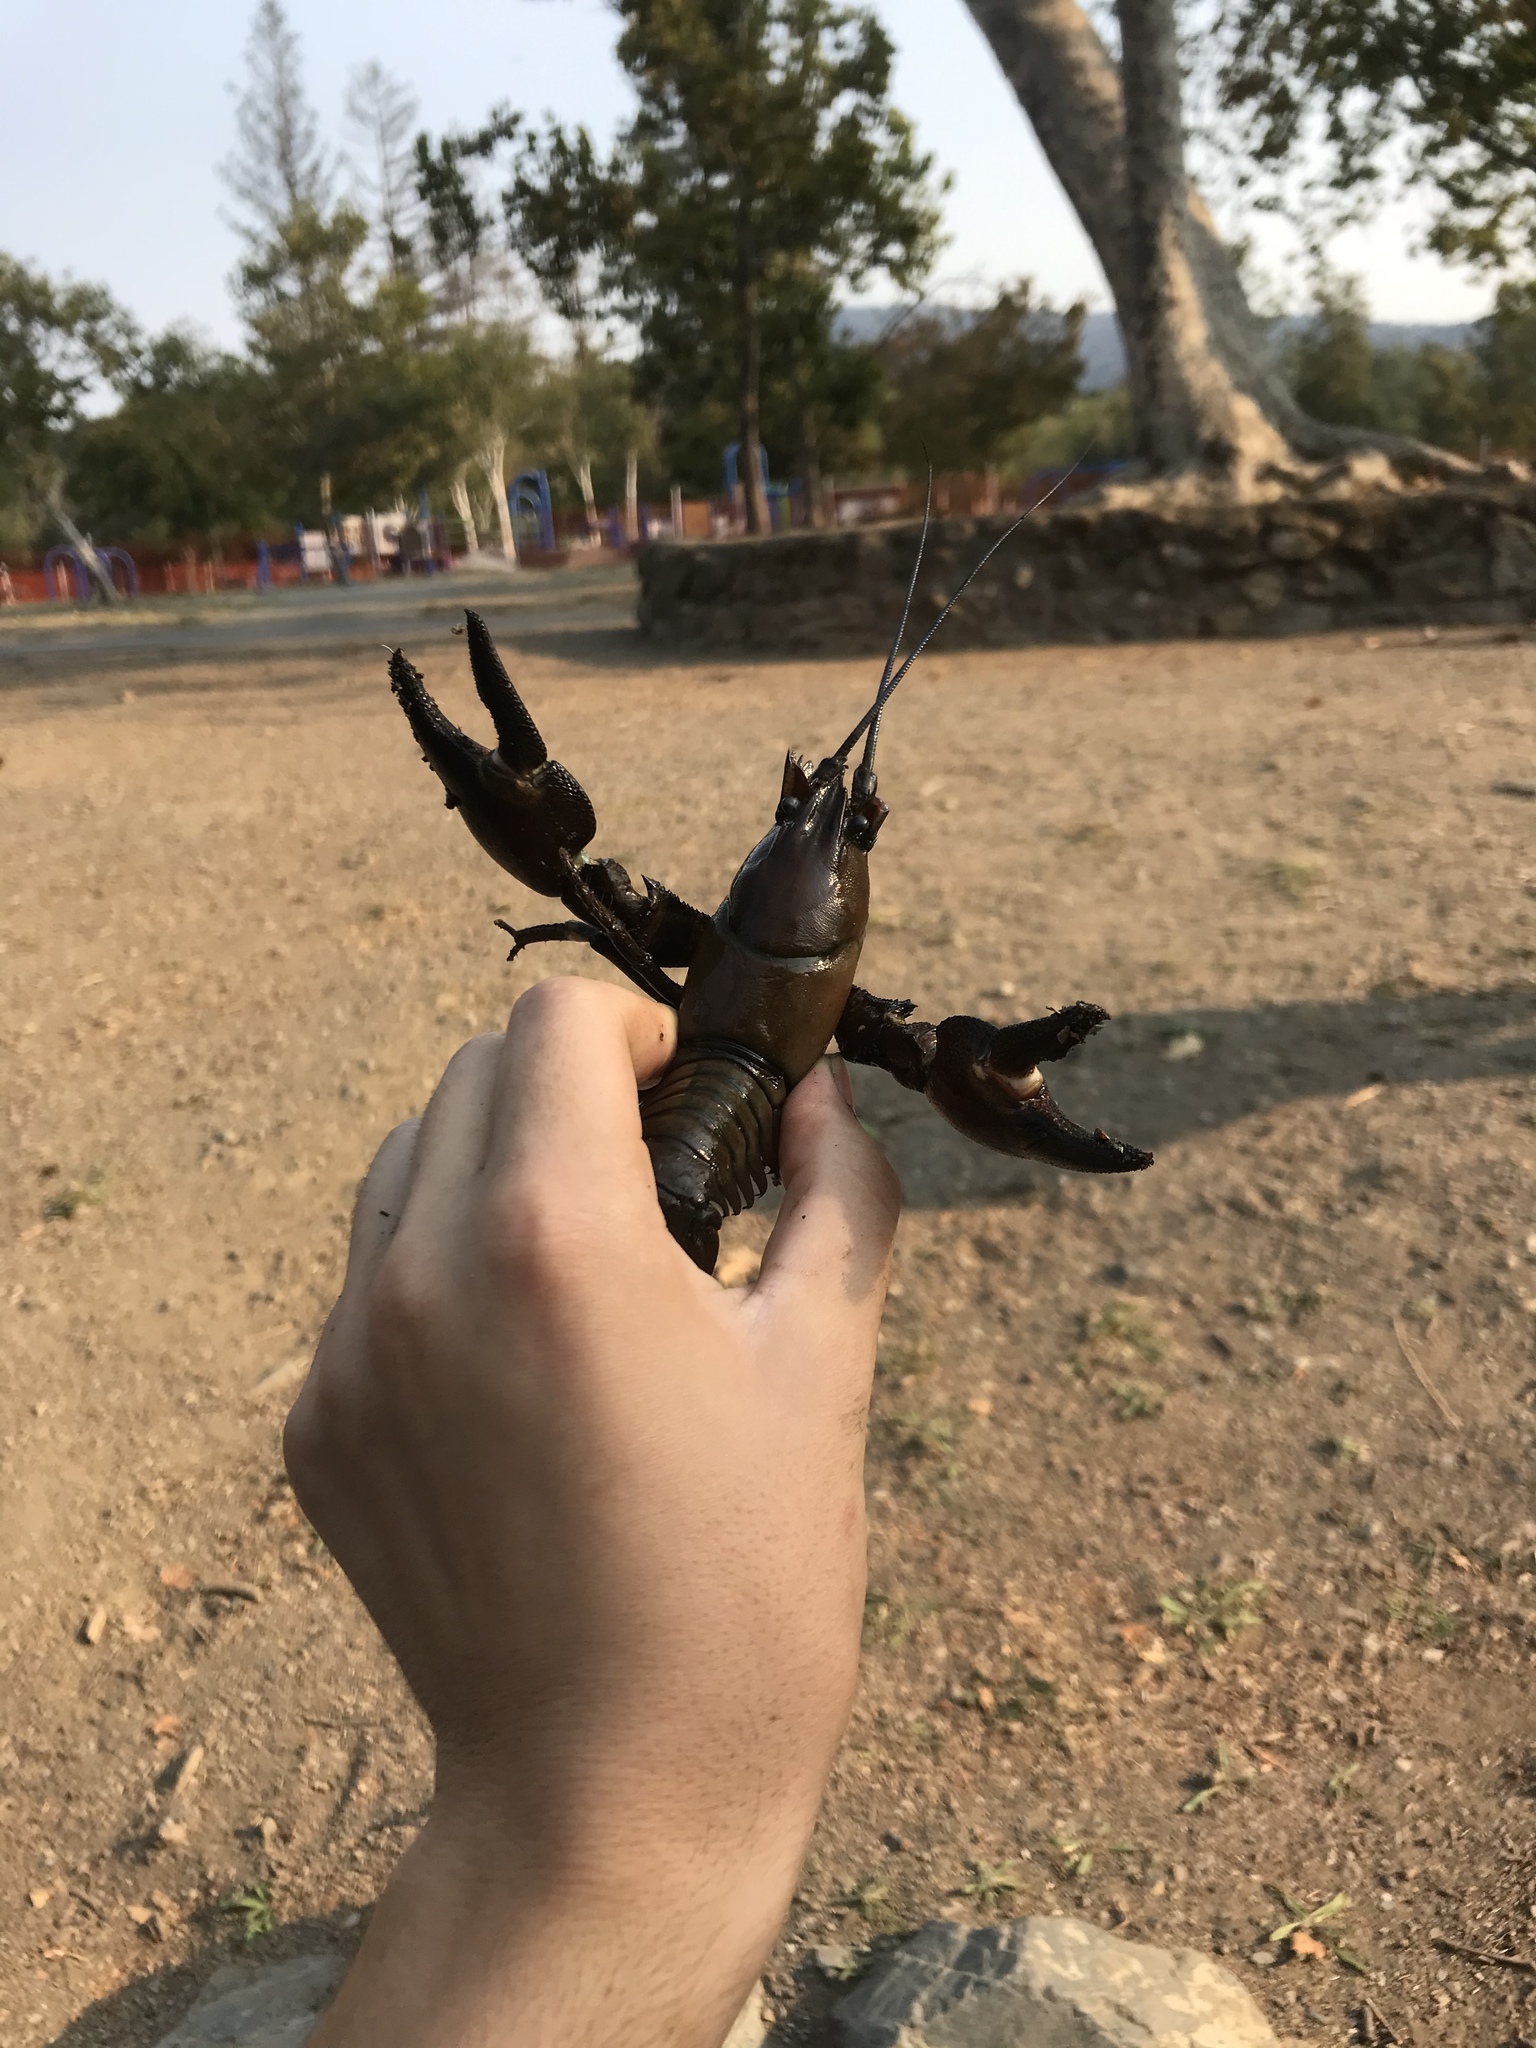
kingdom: Animalia
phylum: Arthropoda
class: Malacostraca
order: Decapoda
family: Astacidae
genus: Pacifastacus
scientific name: Pacifastacus leniusculus
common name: Signal crayfish
